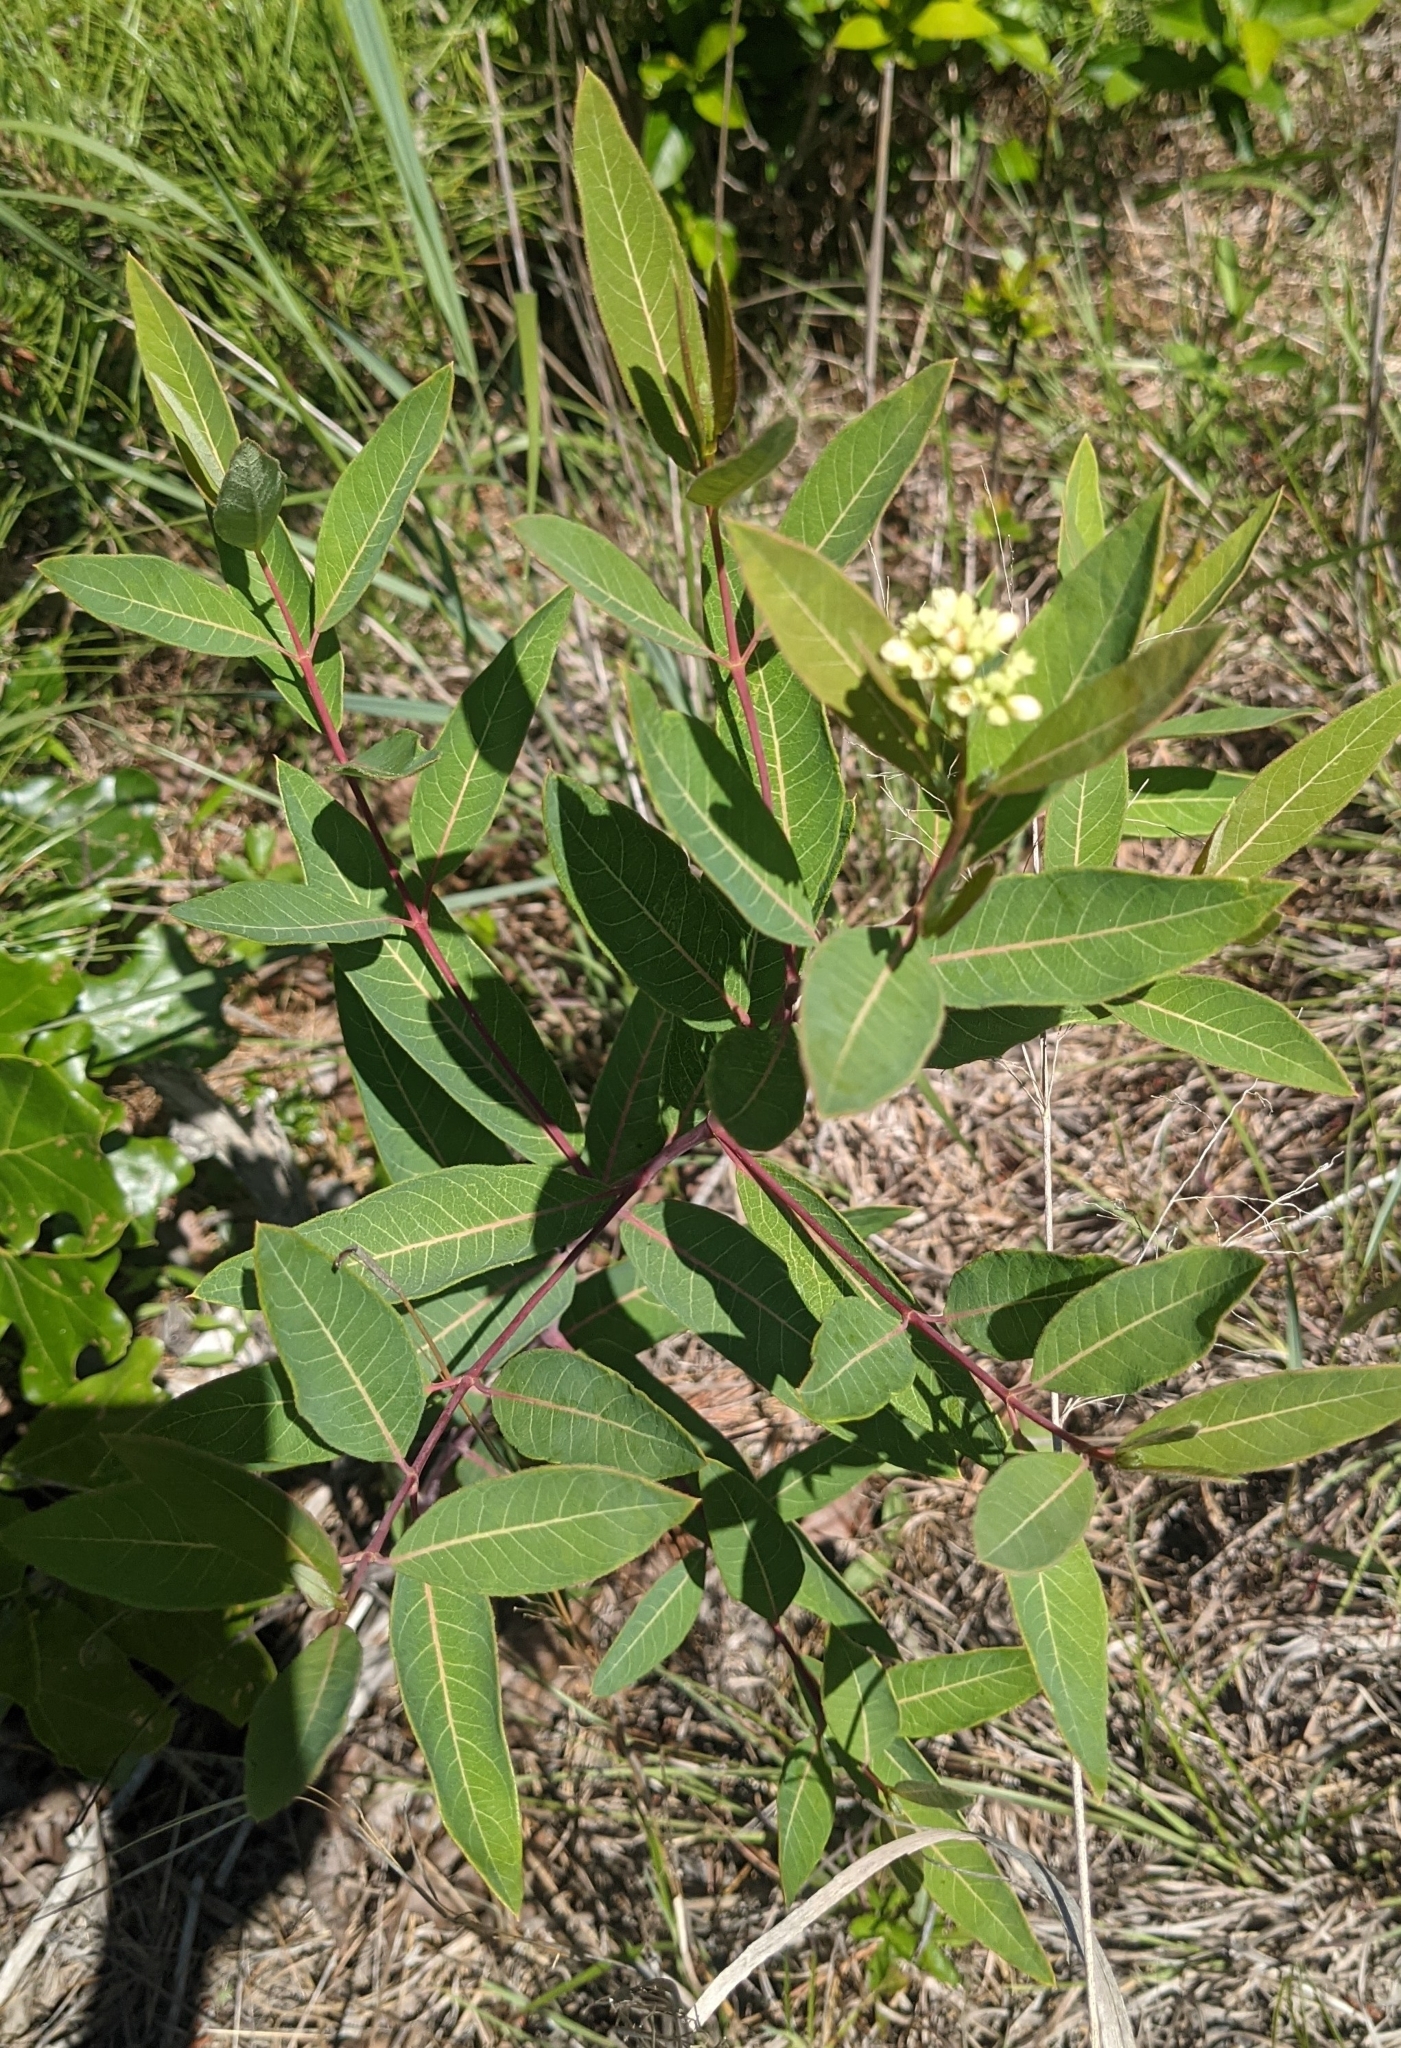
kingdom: Plantae
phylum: Tracheophyta
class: Magnoliopsida
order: Gentianales
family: Apocynaceae
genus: Apocynum
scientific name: Apocynum cannabinum
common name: Hemp dogbane
